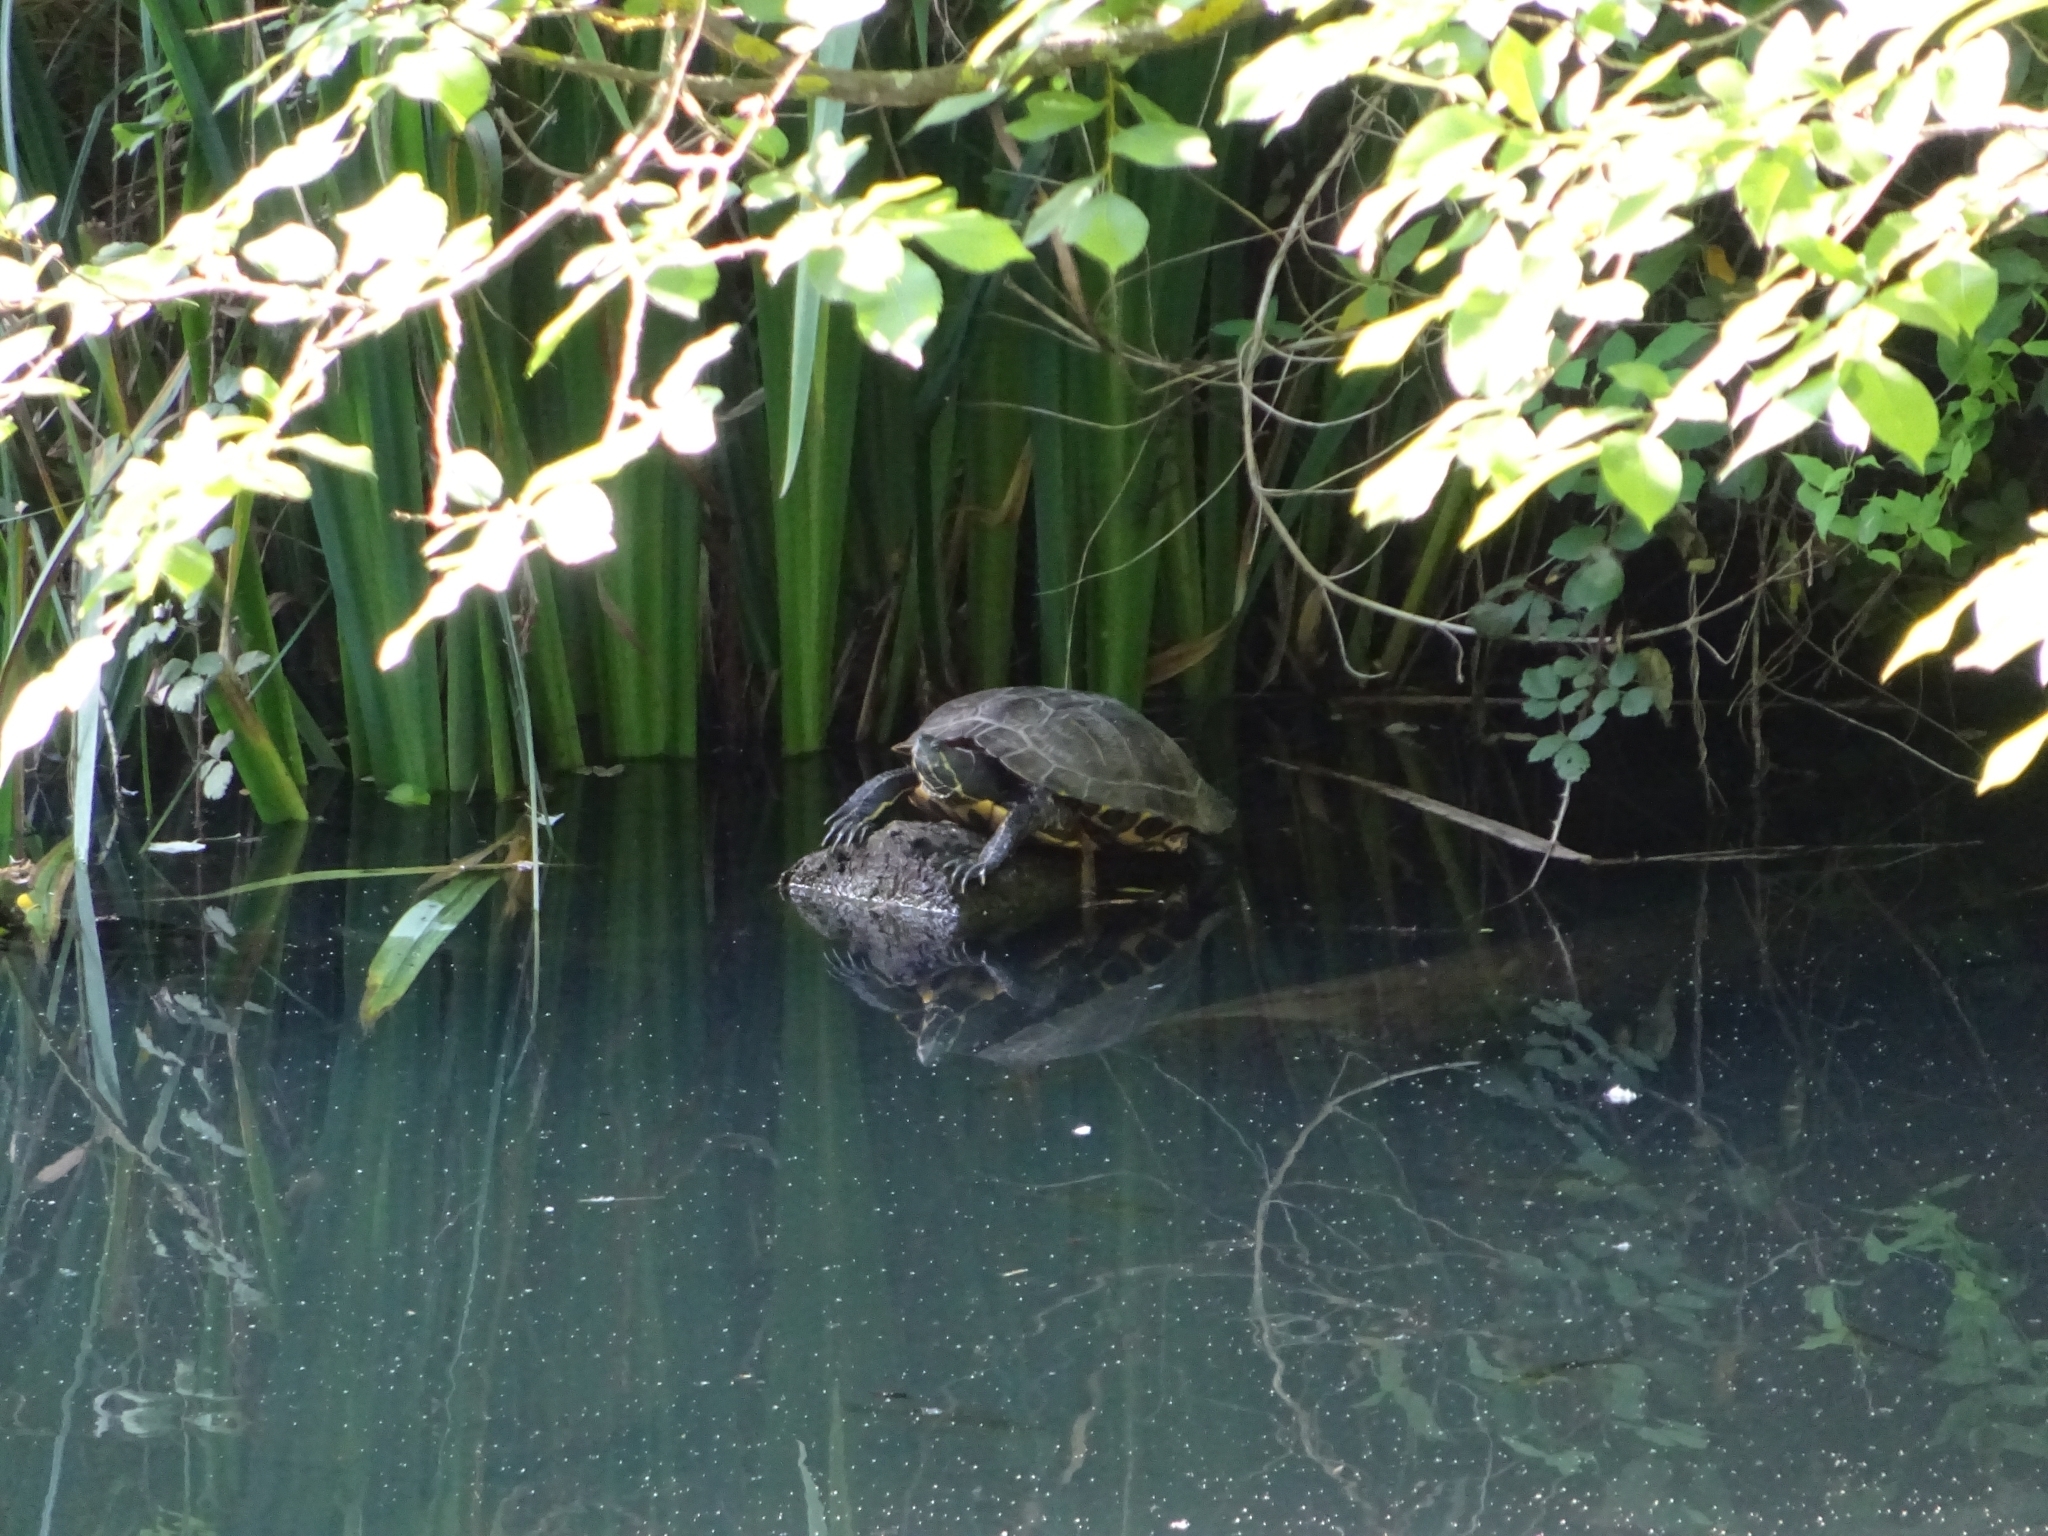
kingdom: Animalia
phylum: Chordata
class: Testudines
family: Emydidae
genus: Trachemys
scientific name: Trachemys scripta
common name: Slider
